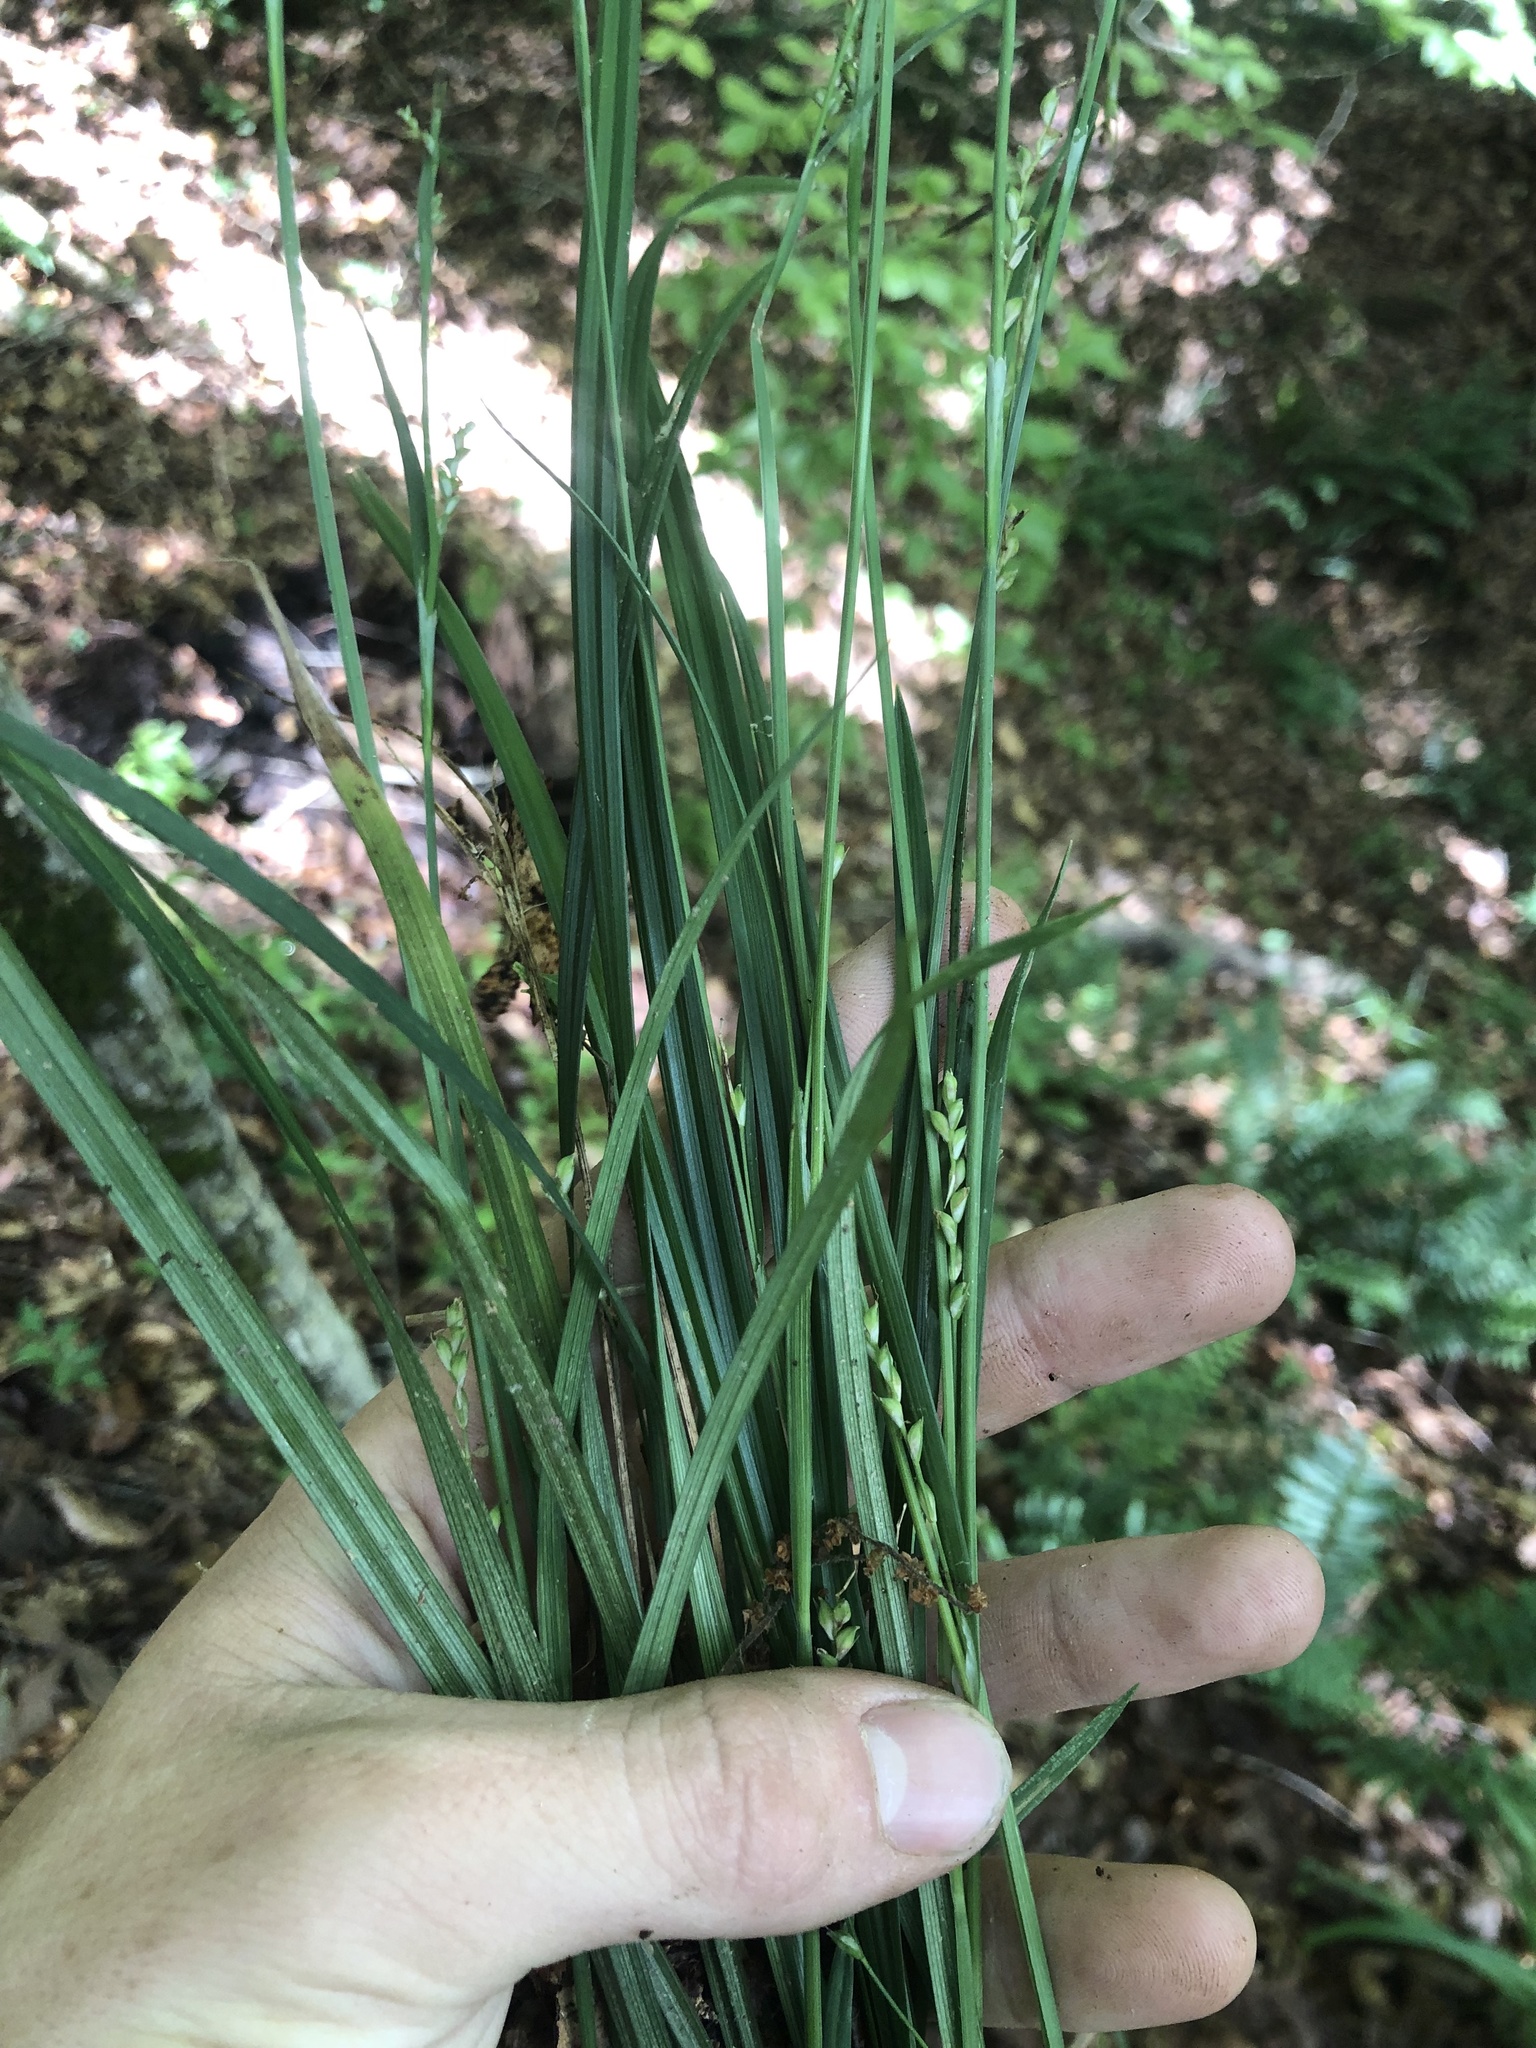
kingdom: Plantae
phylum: Tracheophyta
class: Liliopsida
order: Poales
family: Cyperaceae
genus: Carex
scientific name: Carex ignota
